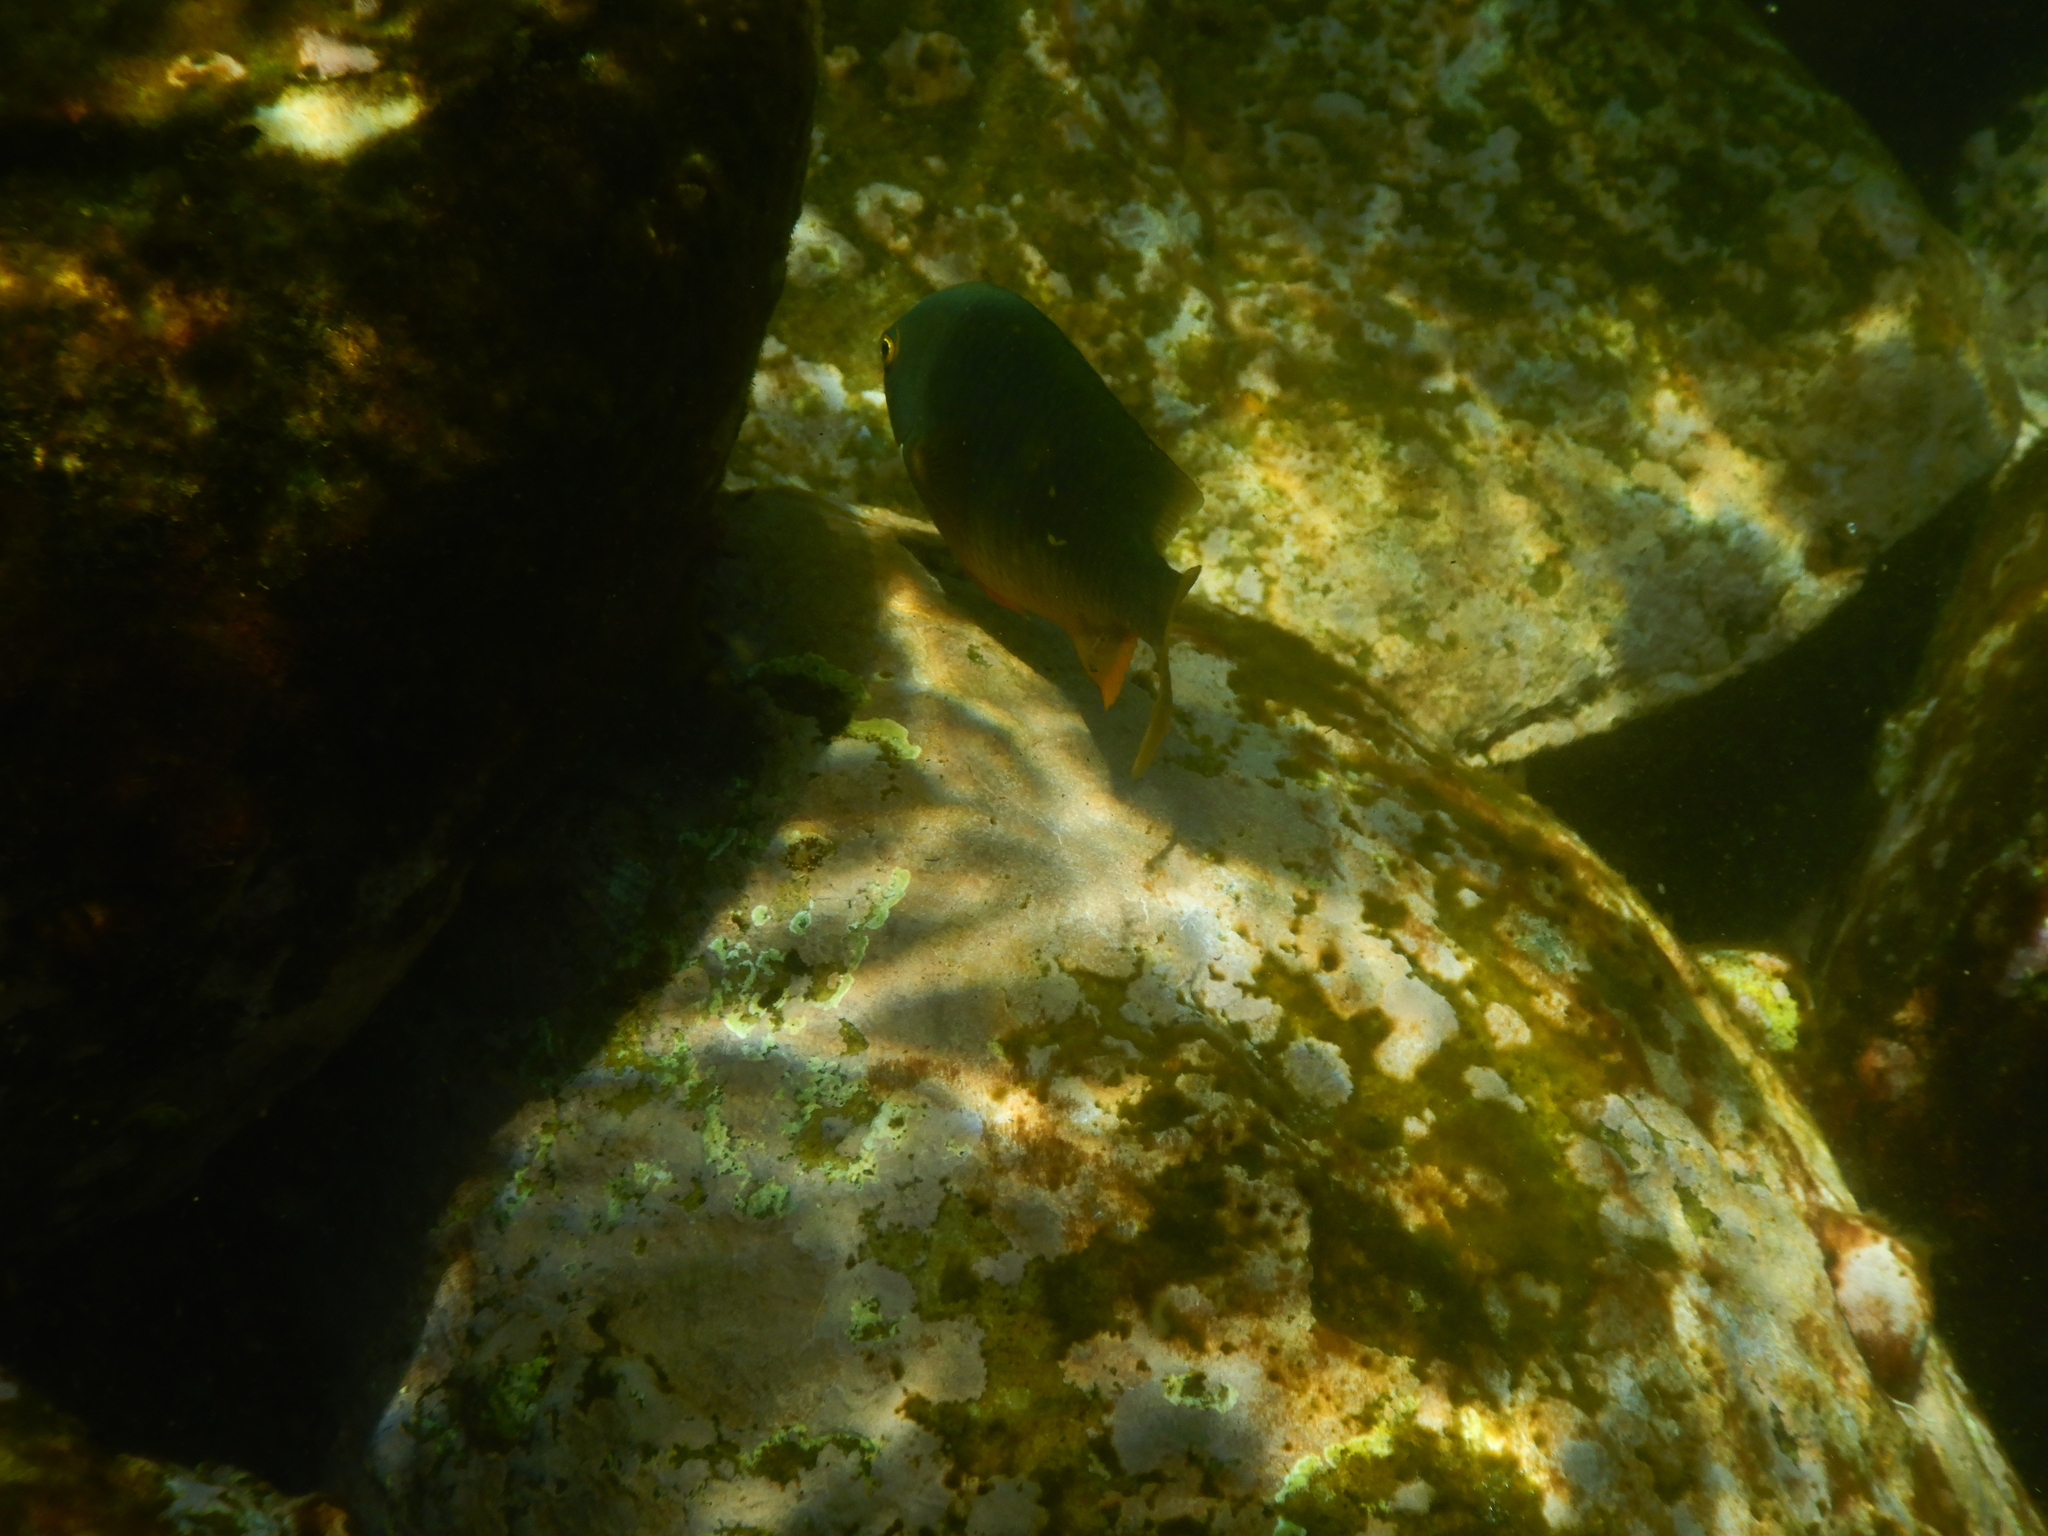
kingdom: Animalia
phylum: Chordata
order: Perciformes
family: Pomacentridae
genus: Stegastes
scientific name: Stegastes gascoynei
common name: Coral sea gregory
